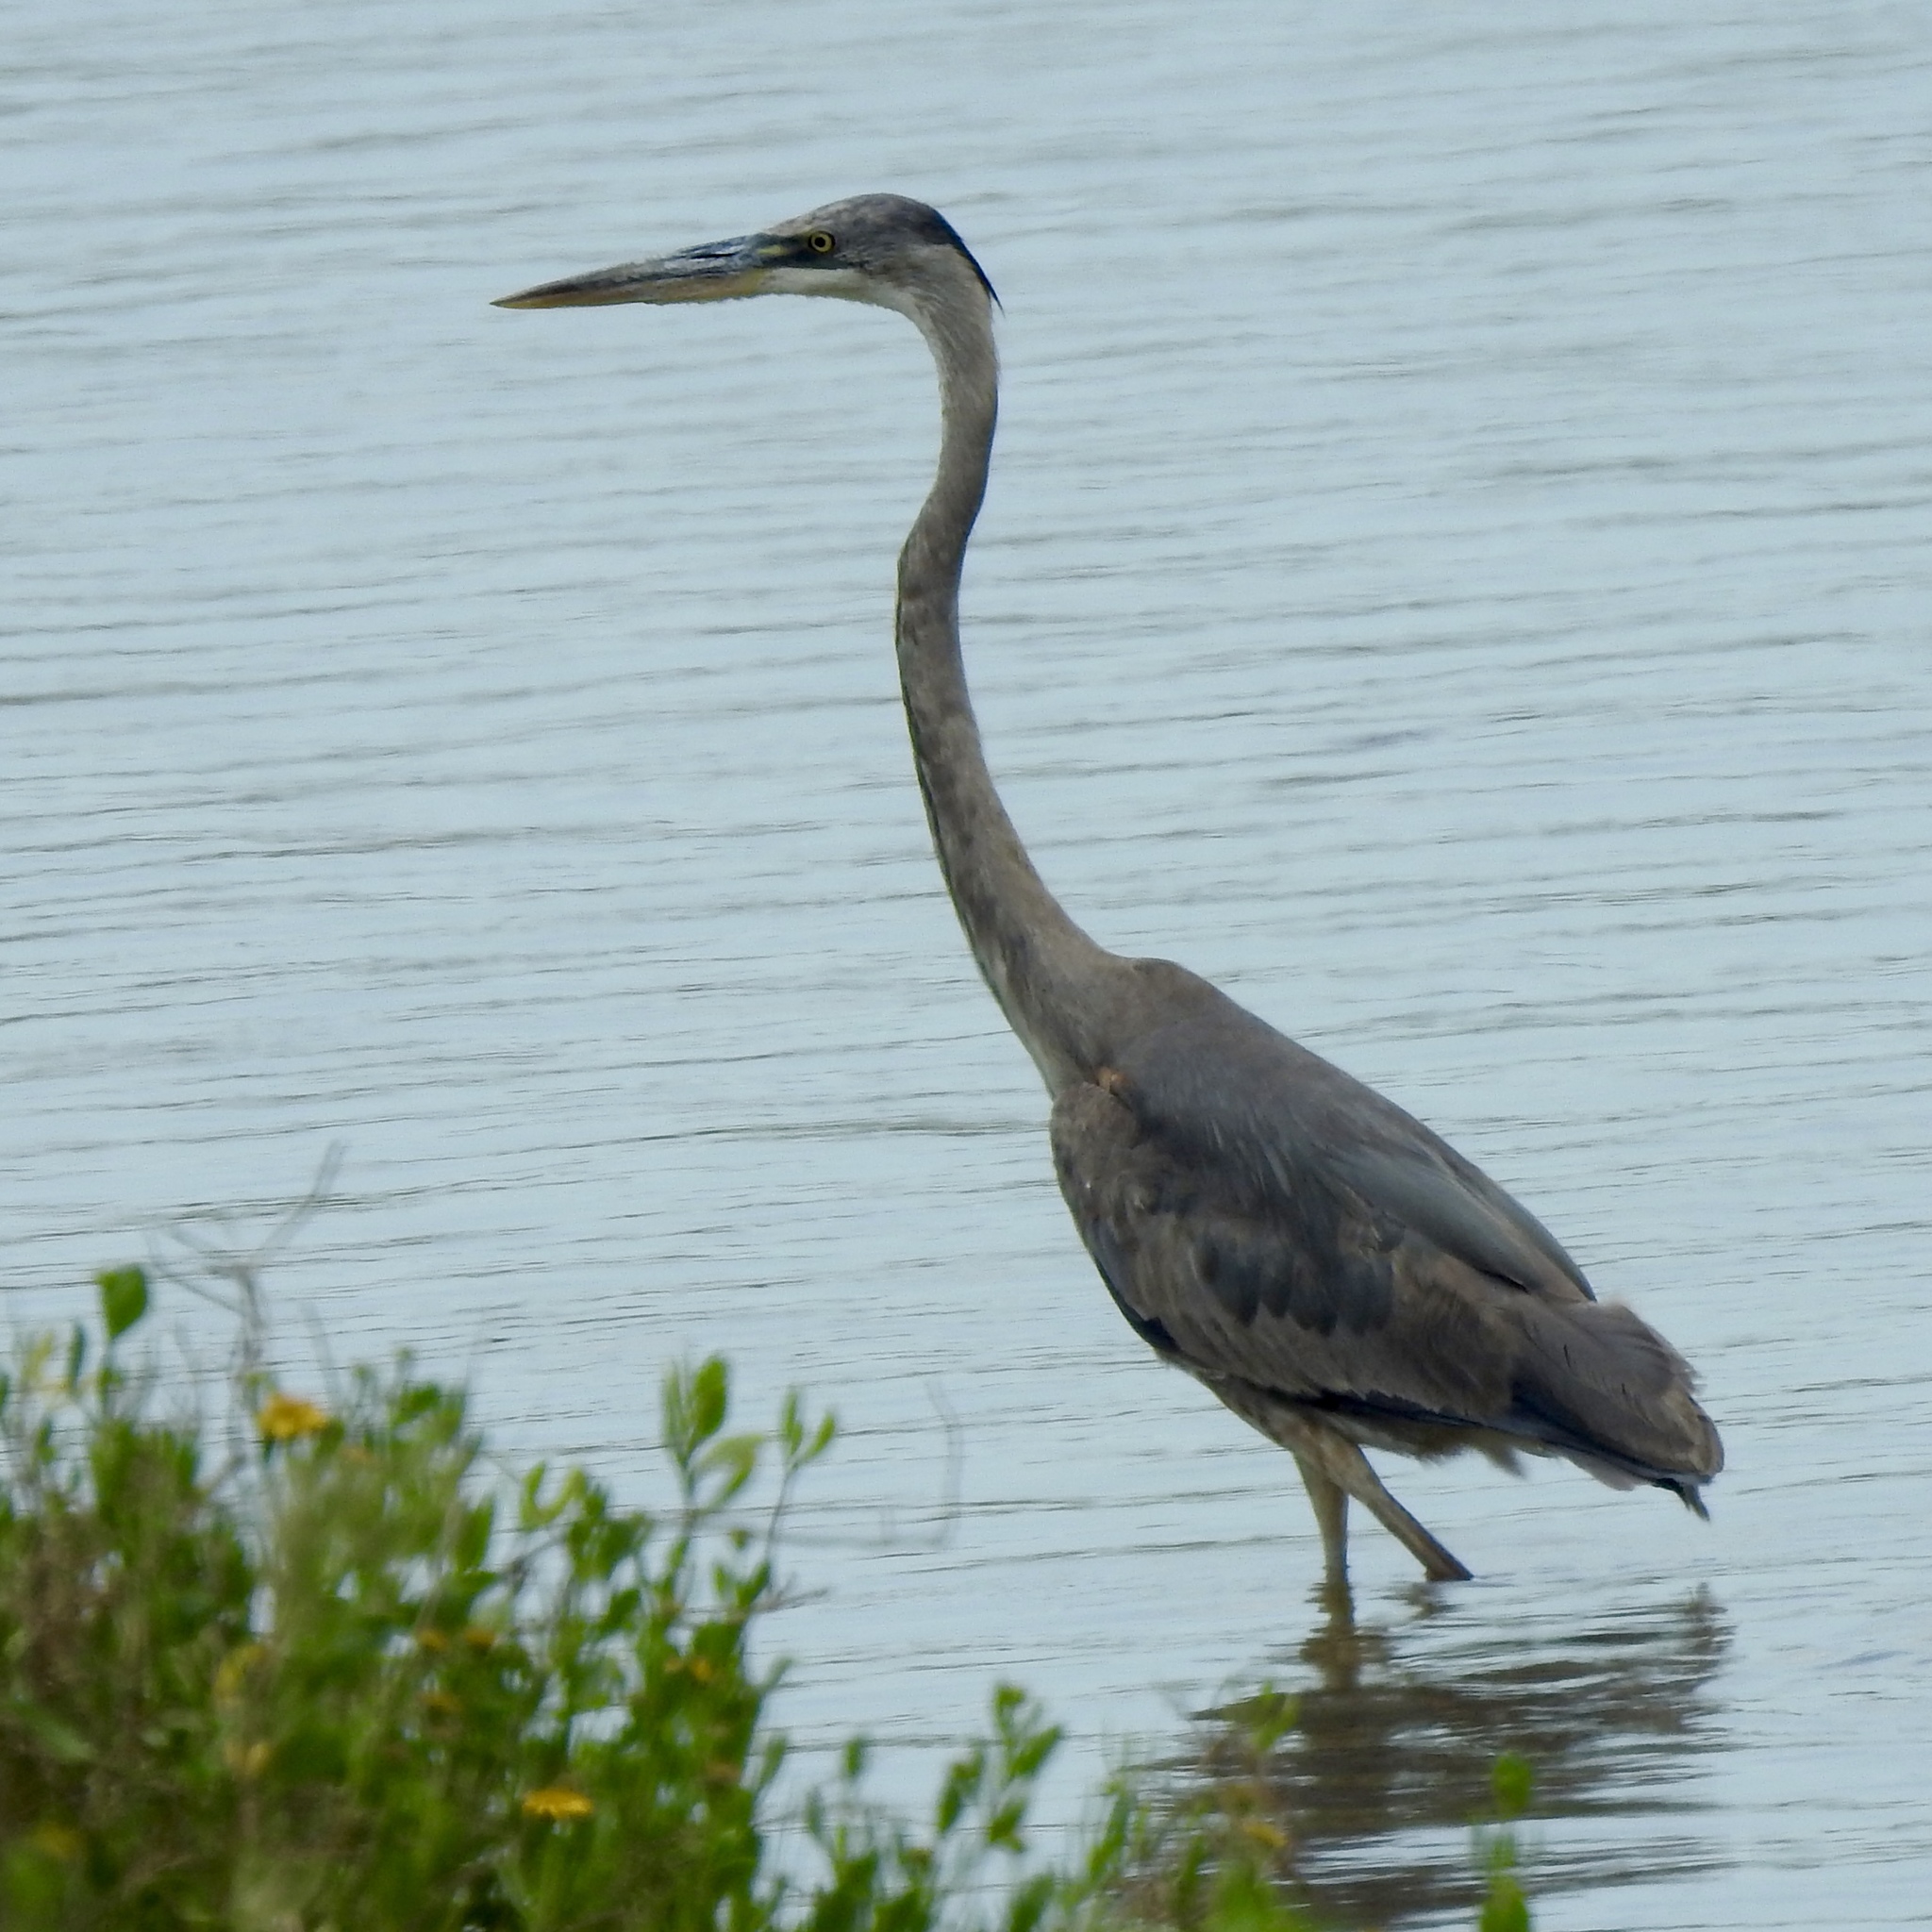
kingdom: Animalia
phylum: Chordata
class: Aves
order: Pelecaniformes
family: Ardeidae
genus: Ardea
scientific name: Ardea herodias
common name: Great blue heron
